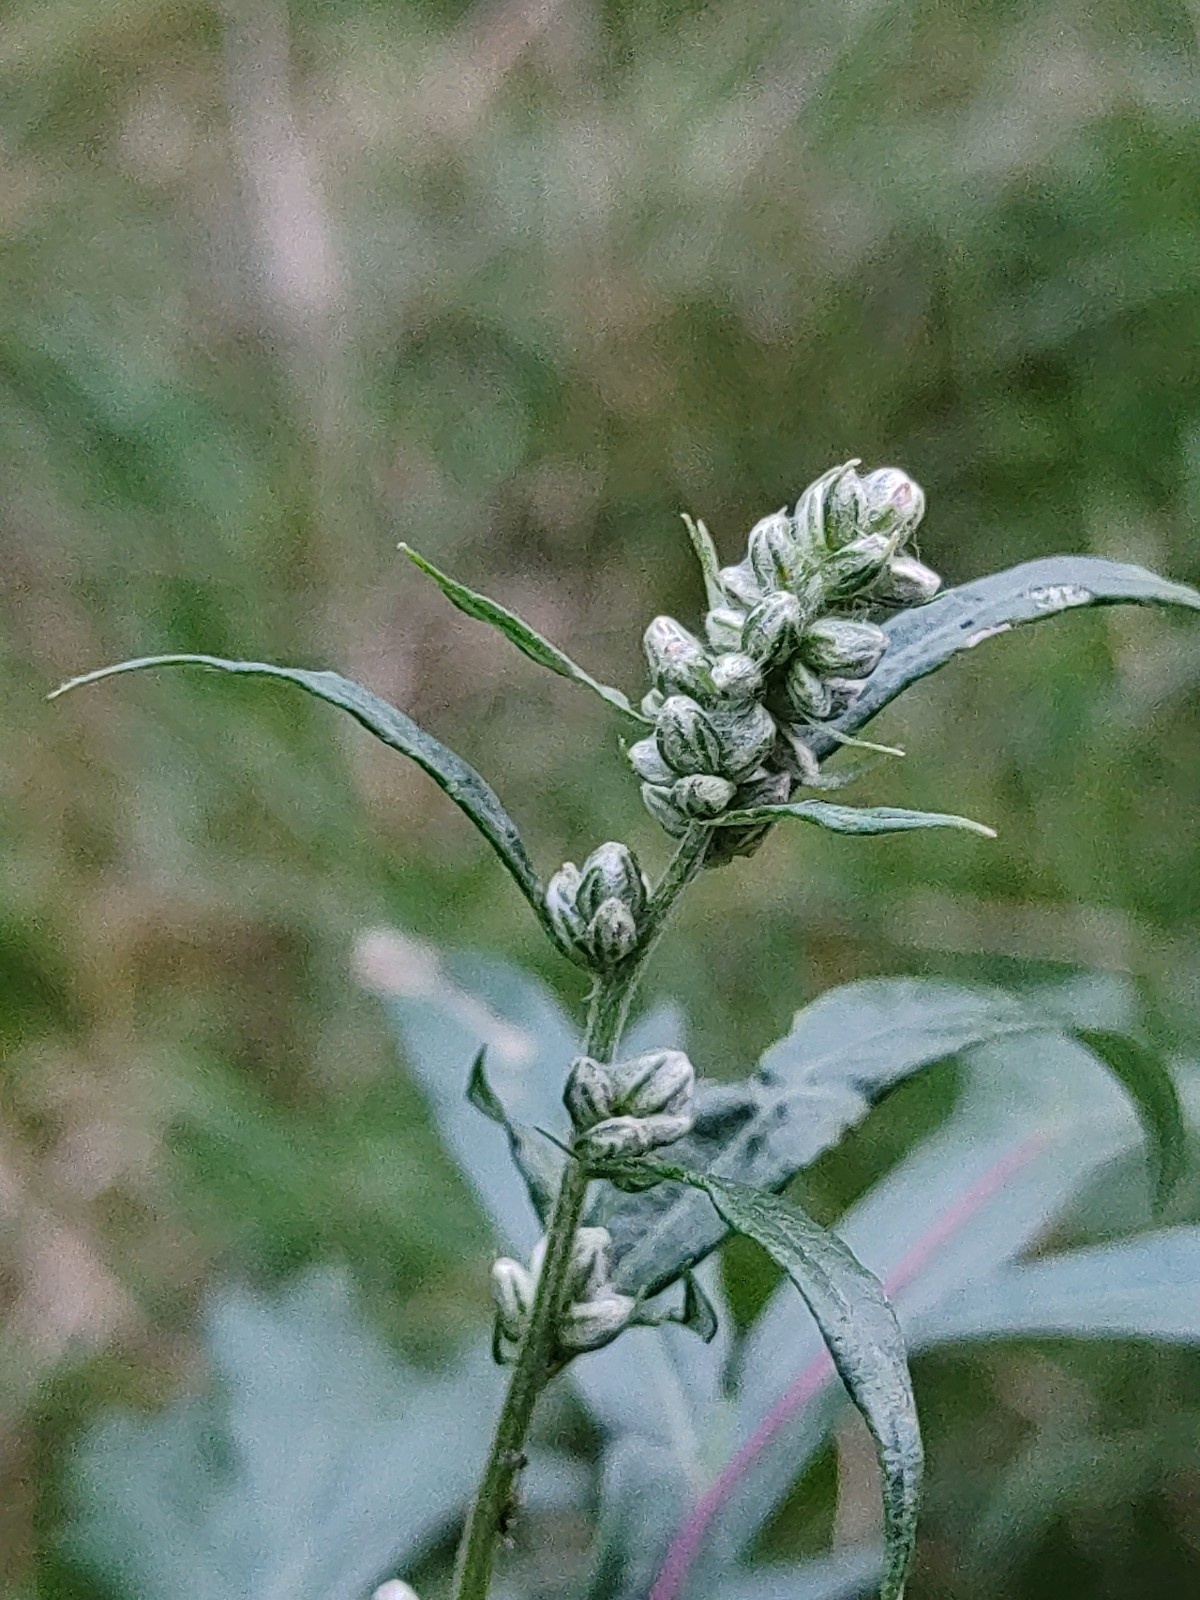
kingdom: Plantae
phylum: Tracheophyta
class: Magnoliopsida
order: Asterales
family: Asteraceae
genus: Artemisia
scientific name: Artemisia vulgaris
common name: Mugwort
